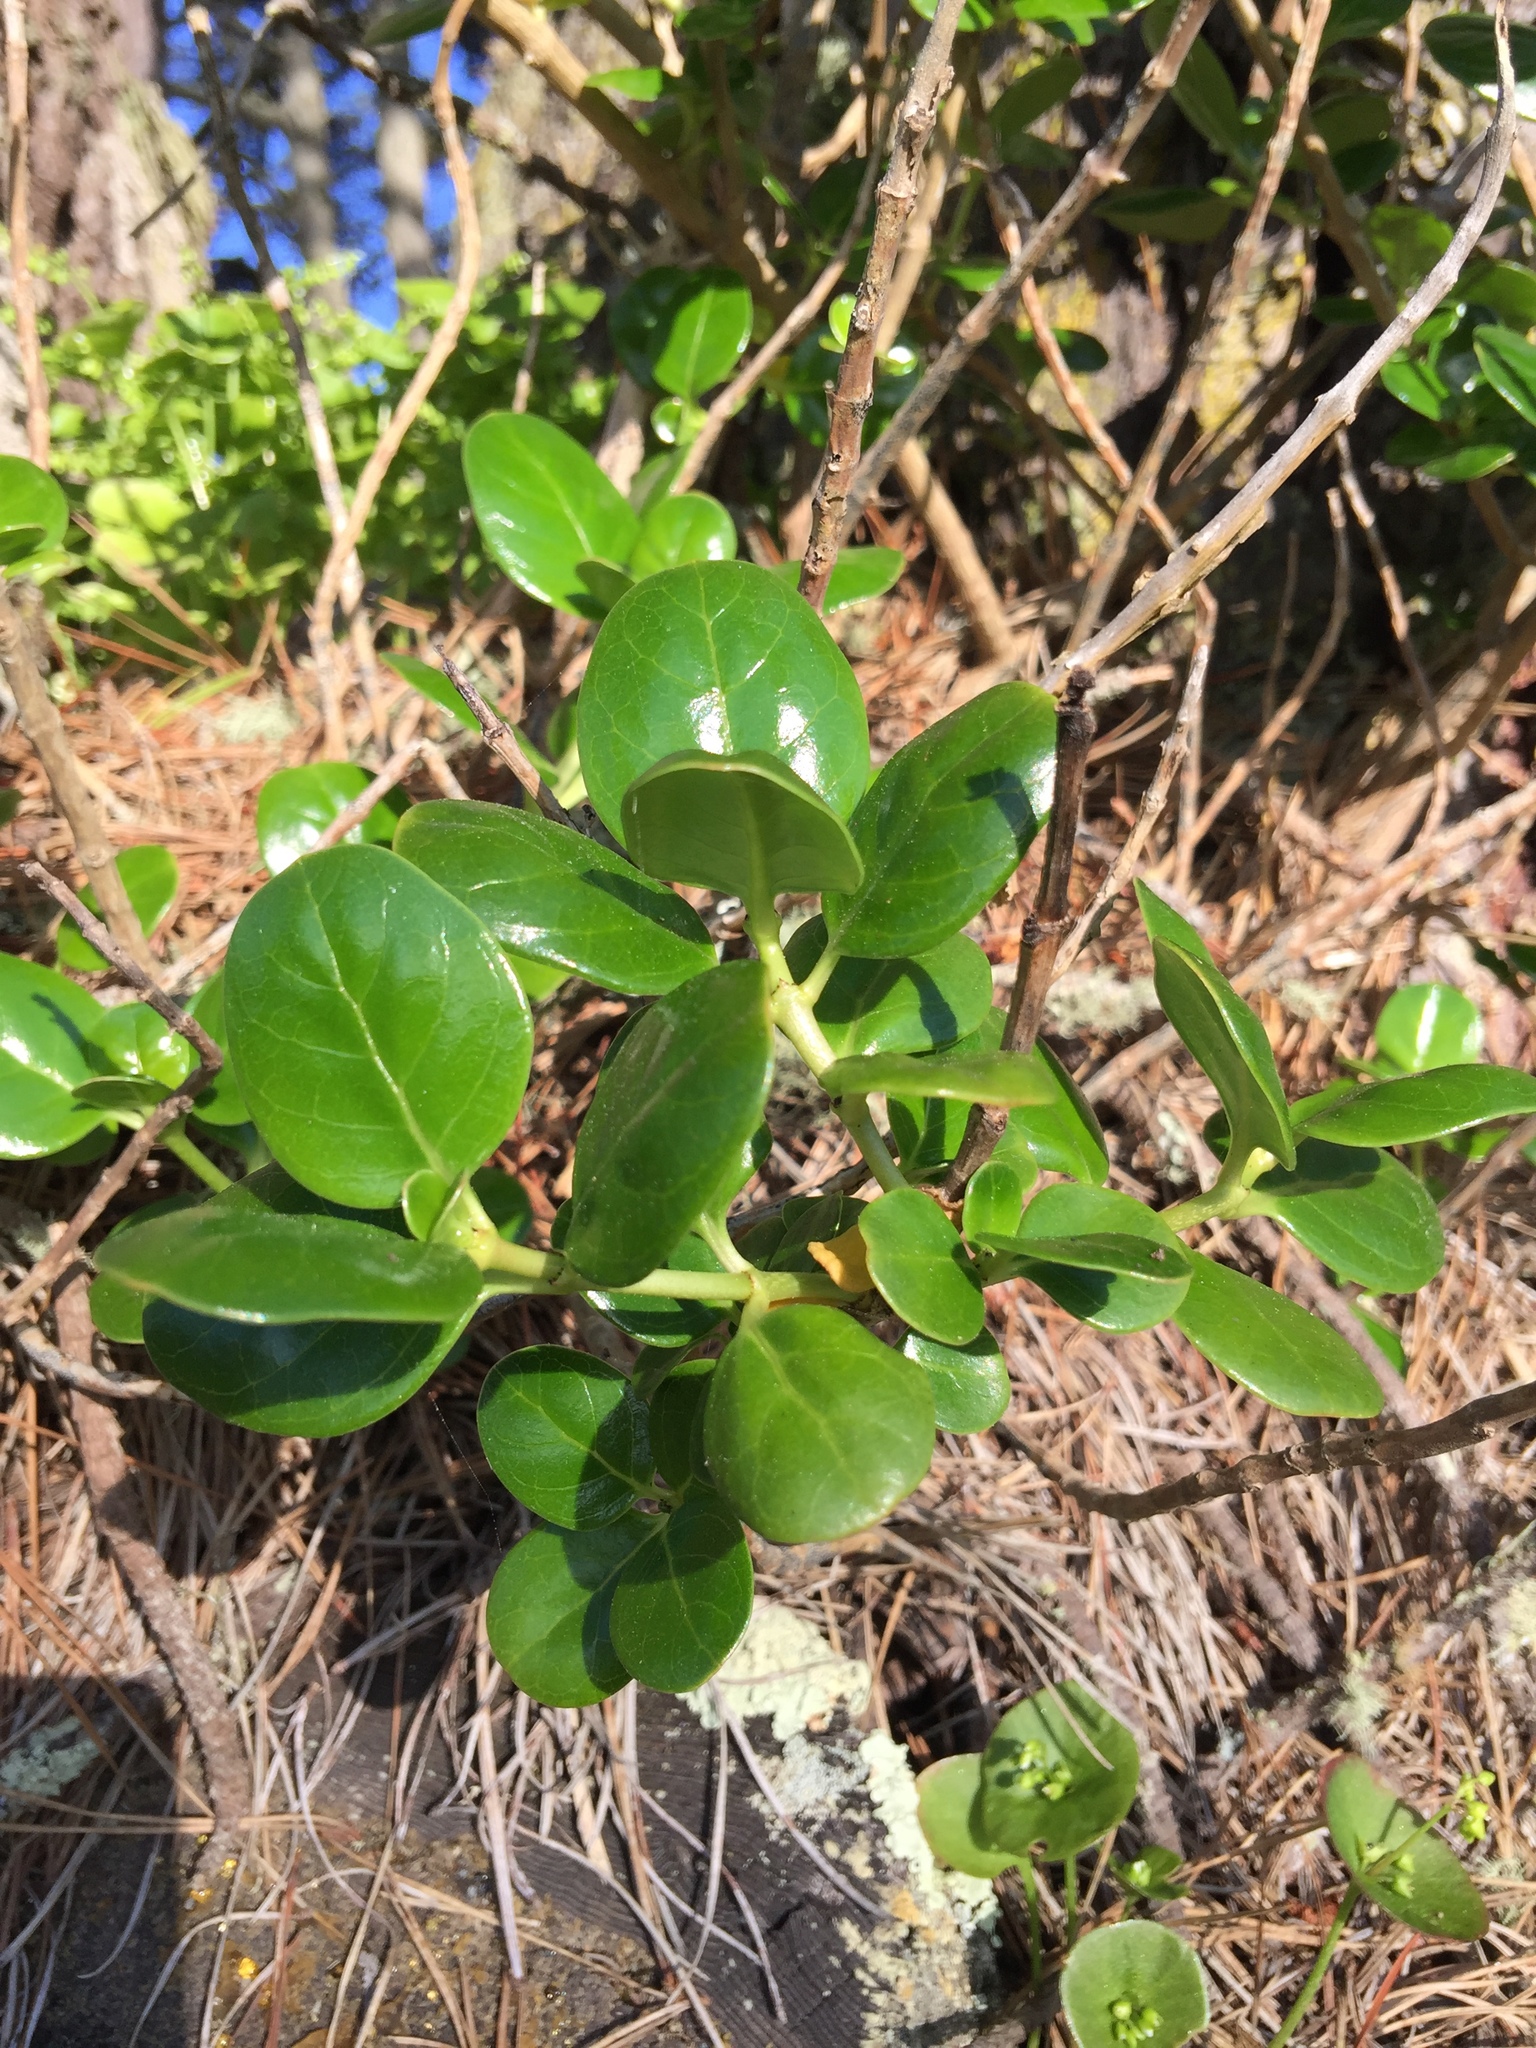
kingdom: Plantae
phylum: Tracheophyta
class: Magnoliopsida
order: Gentianales
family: Rubiaceae
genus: Coprosma
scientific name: Coprosma repens
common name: Tree bedstraw
